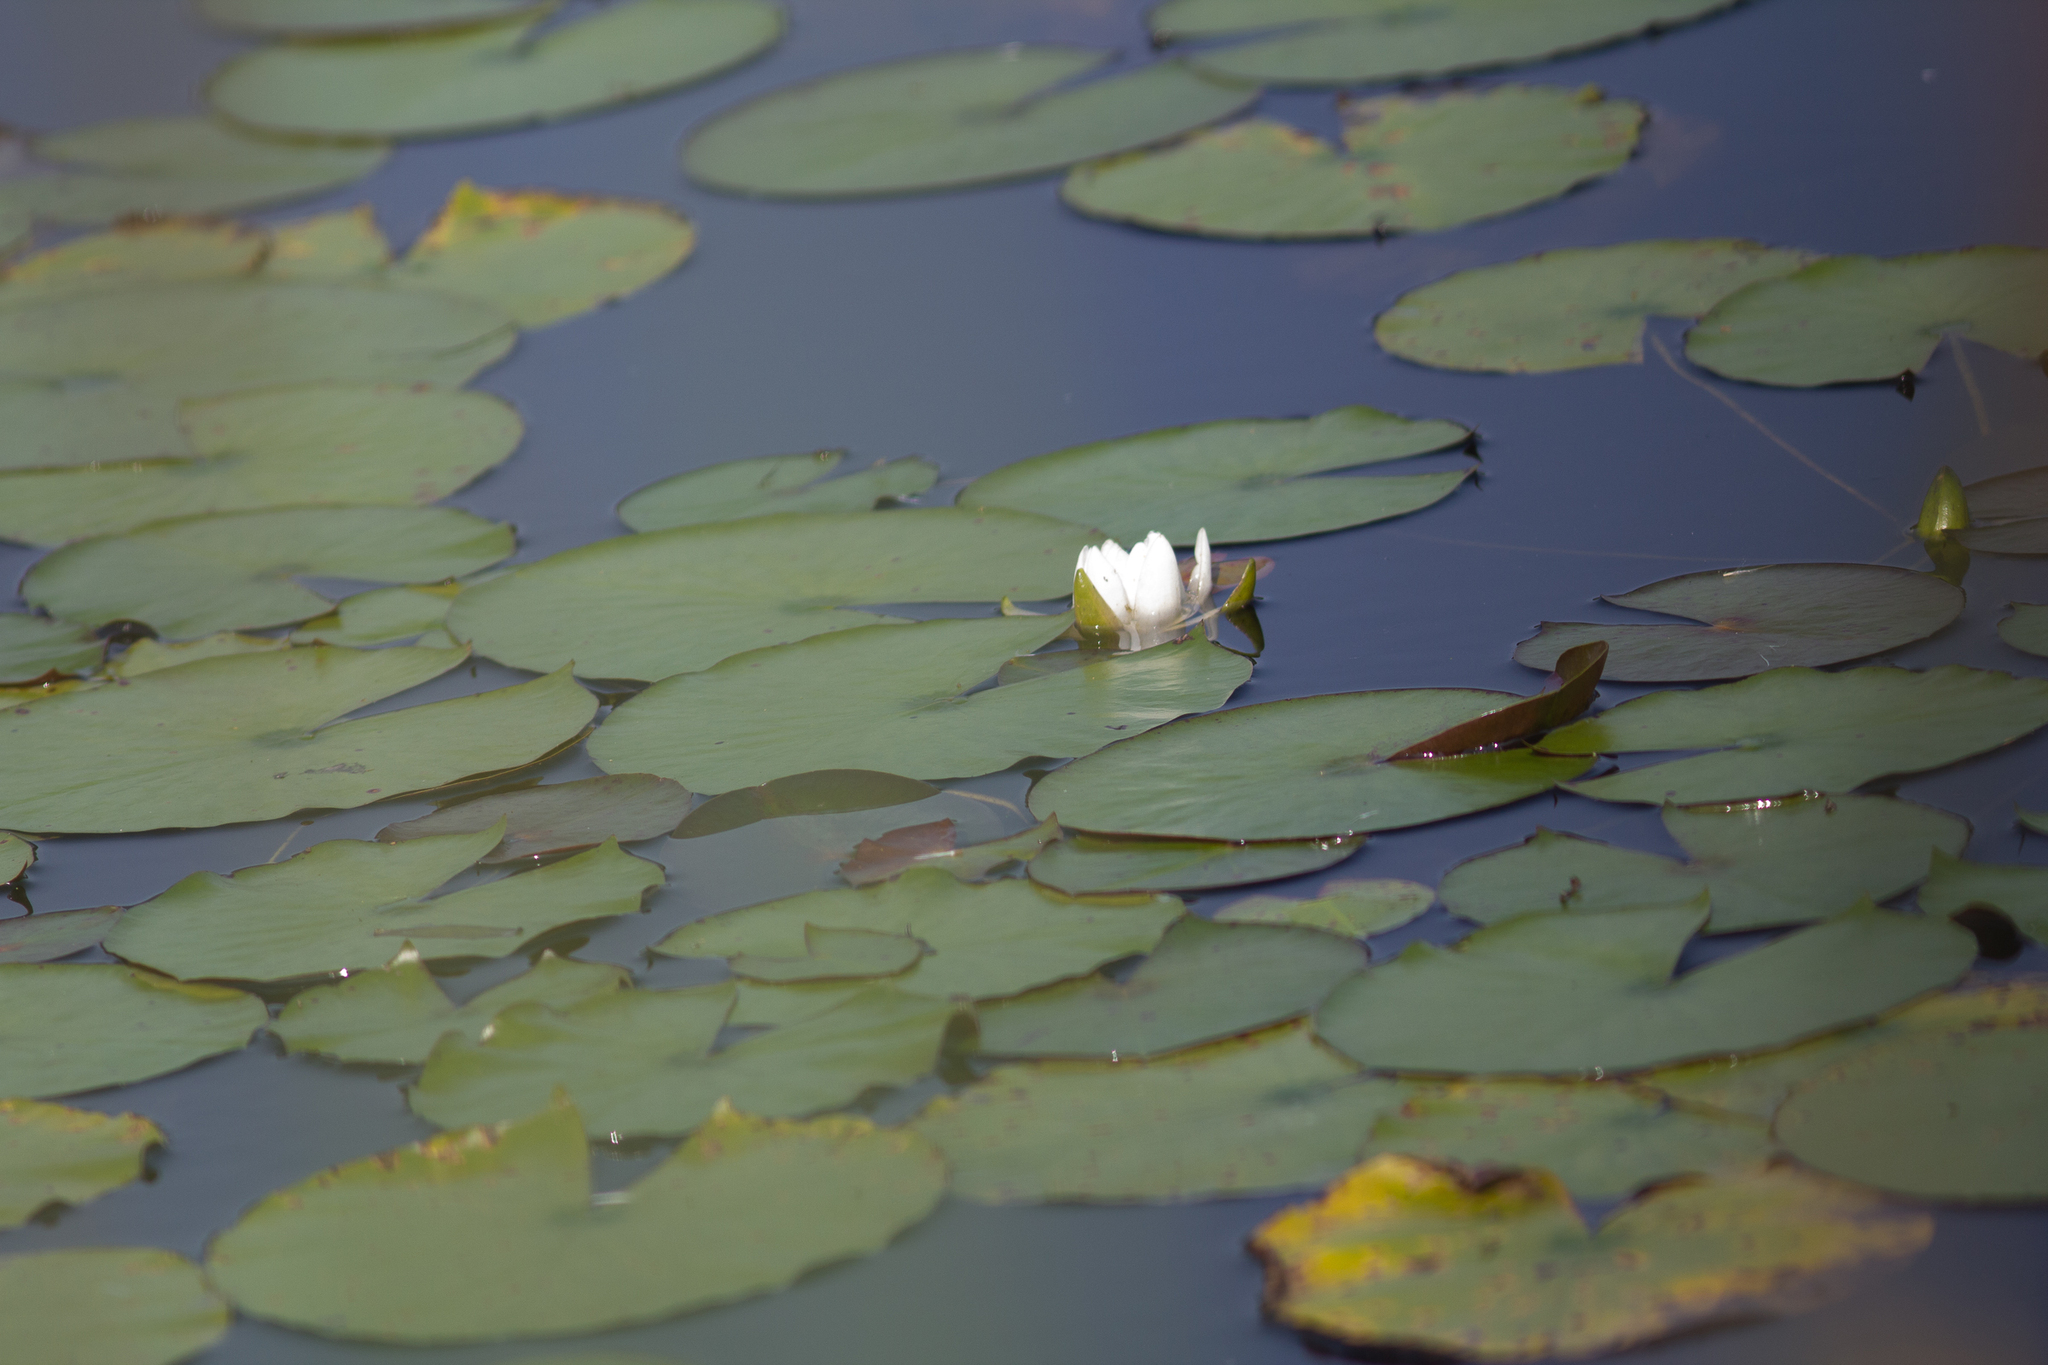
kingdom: Plantae
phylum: Tracheophyta
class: Magnoliopsida
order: Nymphaeales
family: Nymphaeaceae
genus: Nymphaea
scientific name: Nymphaea odorata
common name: Fragrant water-lily
